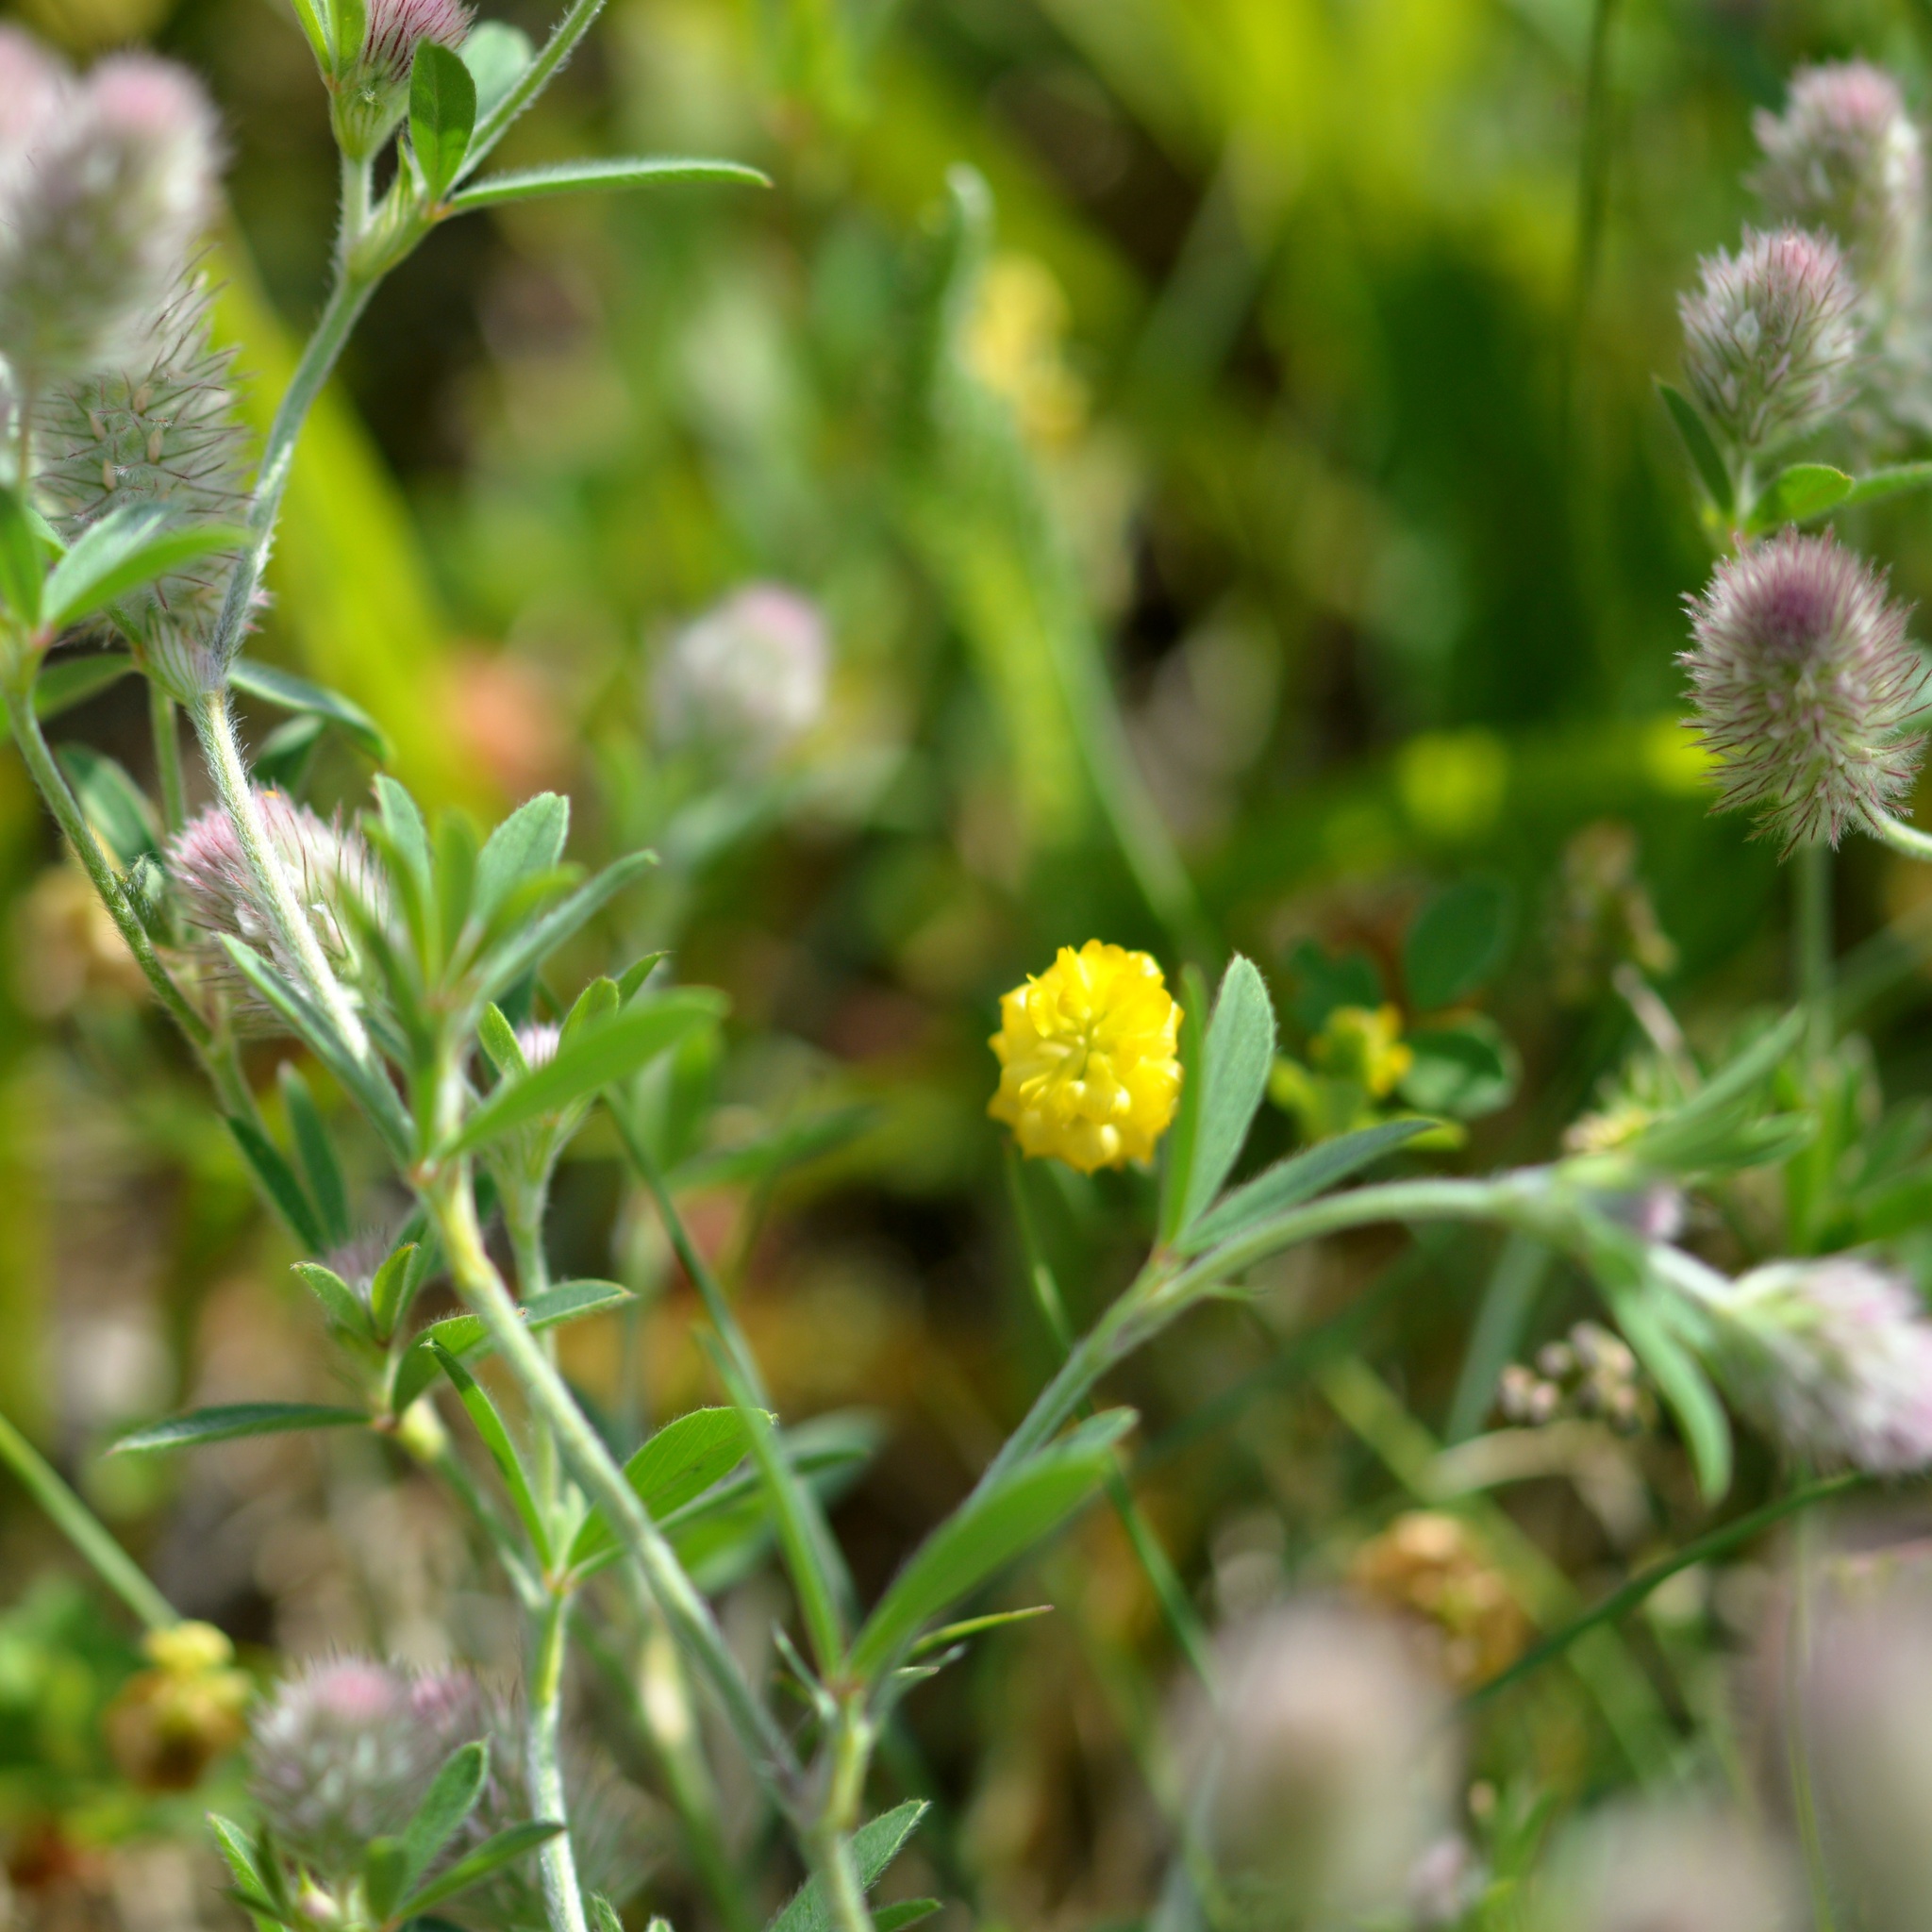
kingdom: Plantae
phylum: Tracheophyta
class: Magnoliopsida
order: Fabales
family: Fabaceae
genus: Trifolium
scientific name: Trifolium arvense
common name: Hare's-foot clover
